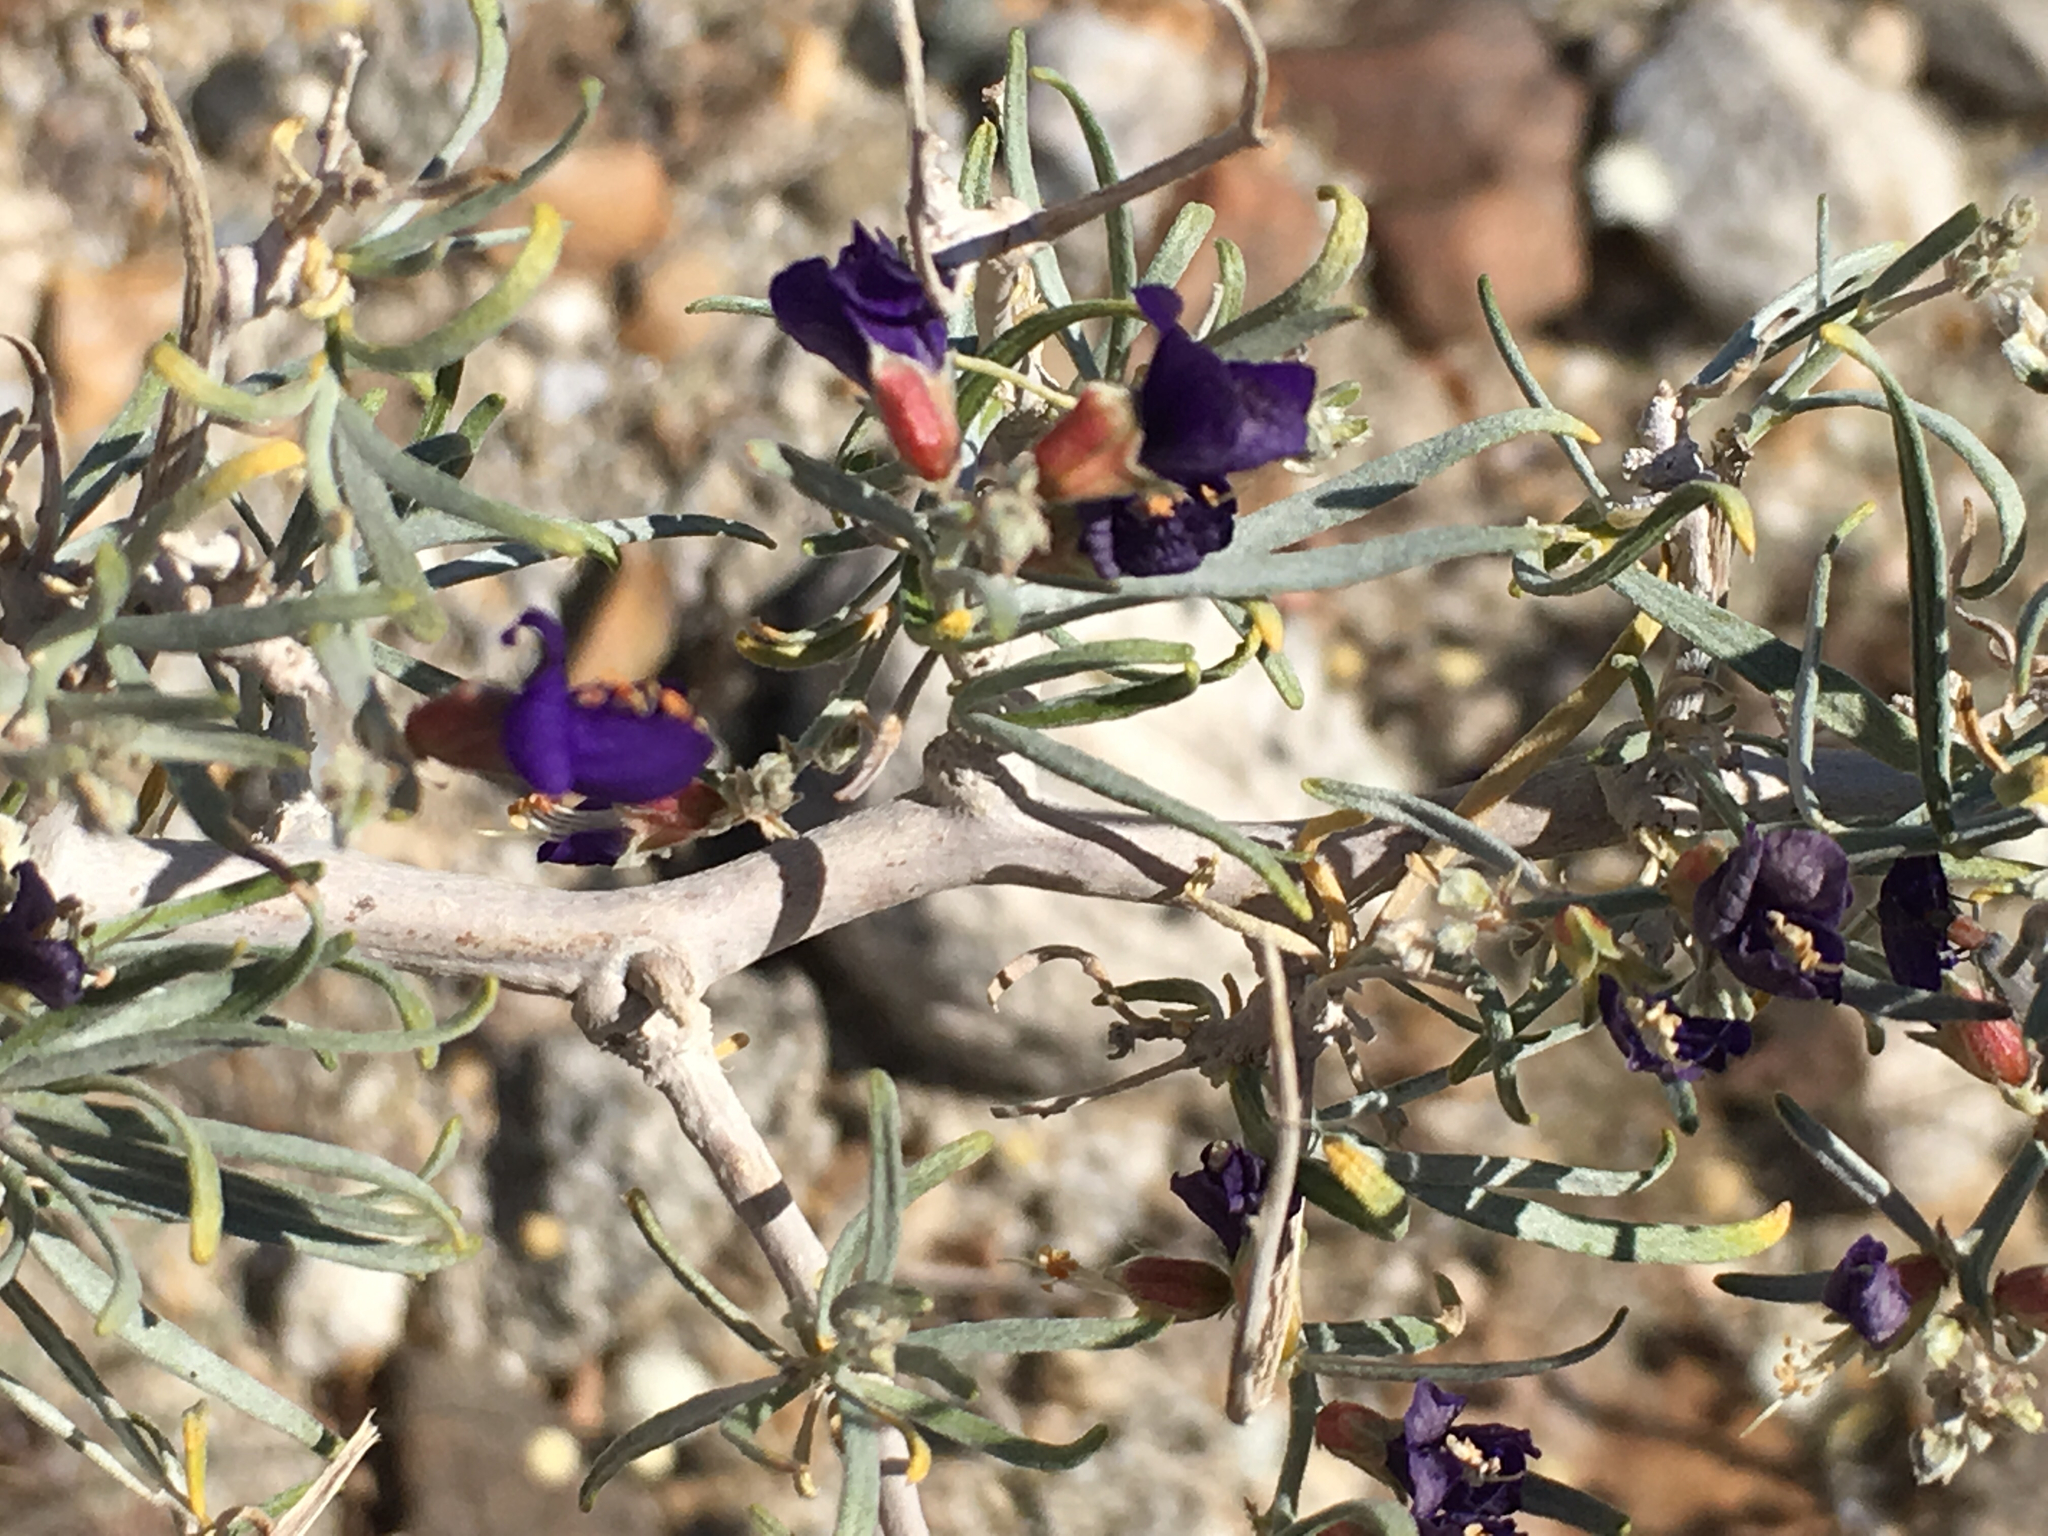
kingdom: Plantae
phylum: Tracheophyta
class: Magnoliopsida
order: Fabales
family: Fabaceae
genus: Psorothamnus
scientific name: Psorothamnus schottii
